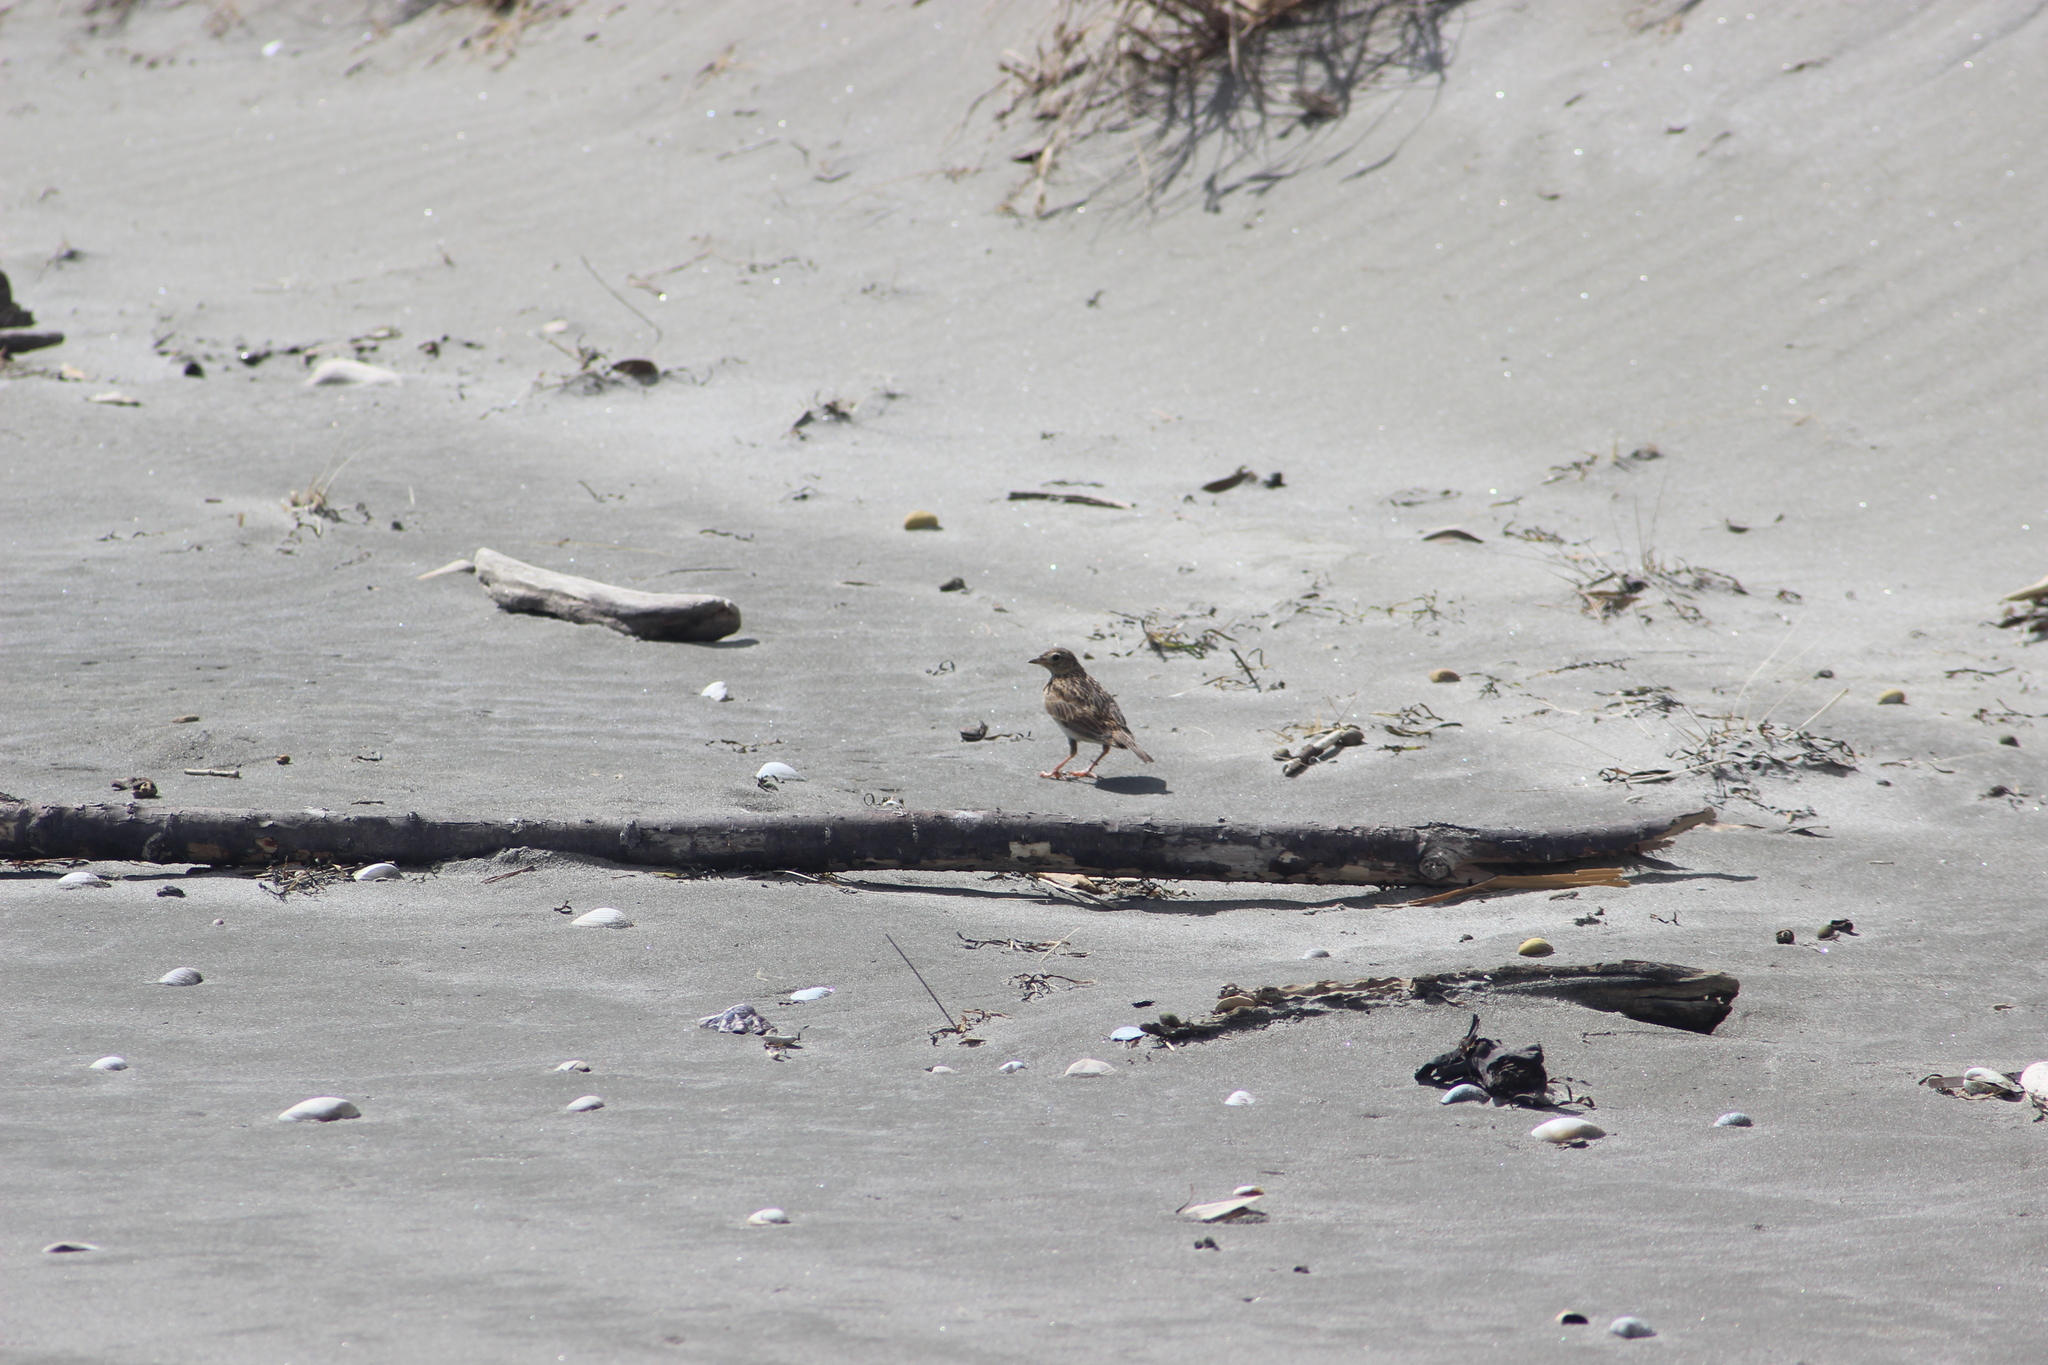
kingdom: Animalia
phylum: Chordata
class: Aves
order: Passeriformes
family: Alaudidae
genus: Alauda
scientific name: Alauda arvensis
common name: Eurasian skylark
